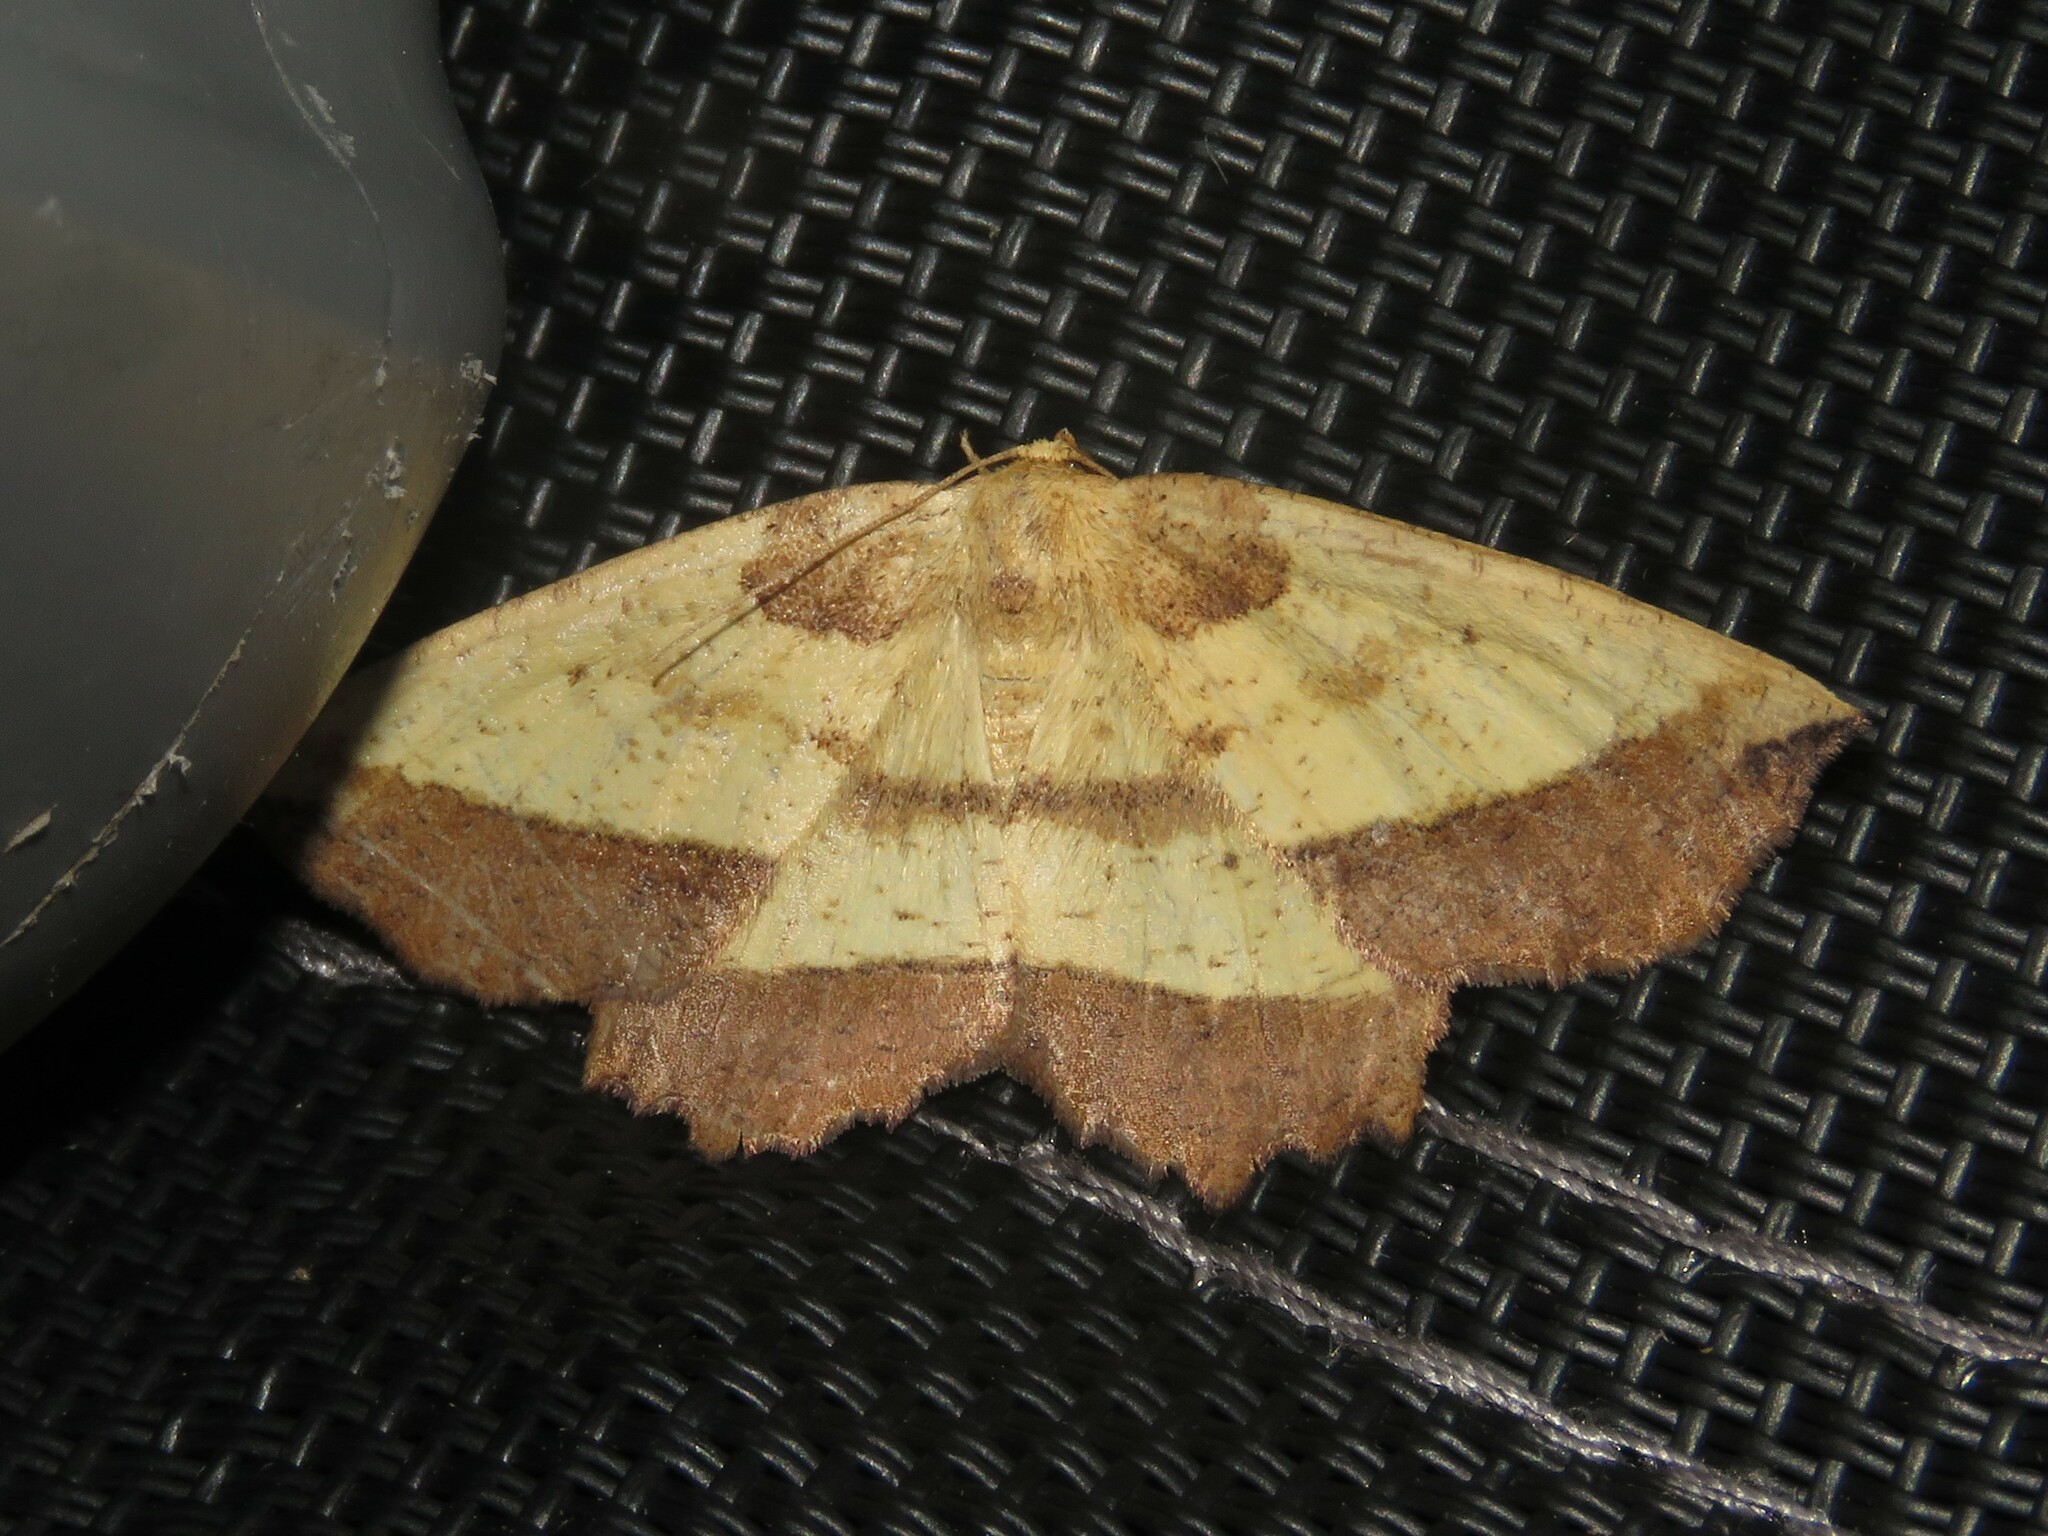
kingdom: Animalia
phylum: Arthropoda
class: Insecta
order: Lepidoptera
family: Geometridae
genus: Euchlaena
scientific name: Euchlaena serrata
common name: Saw wing
